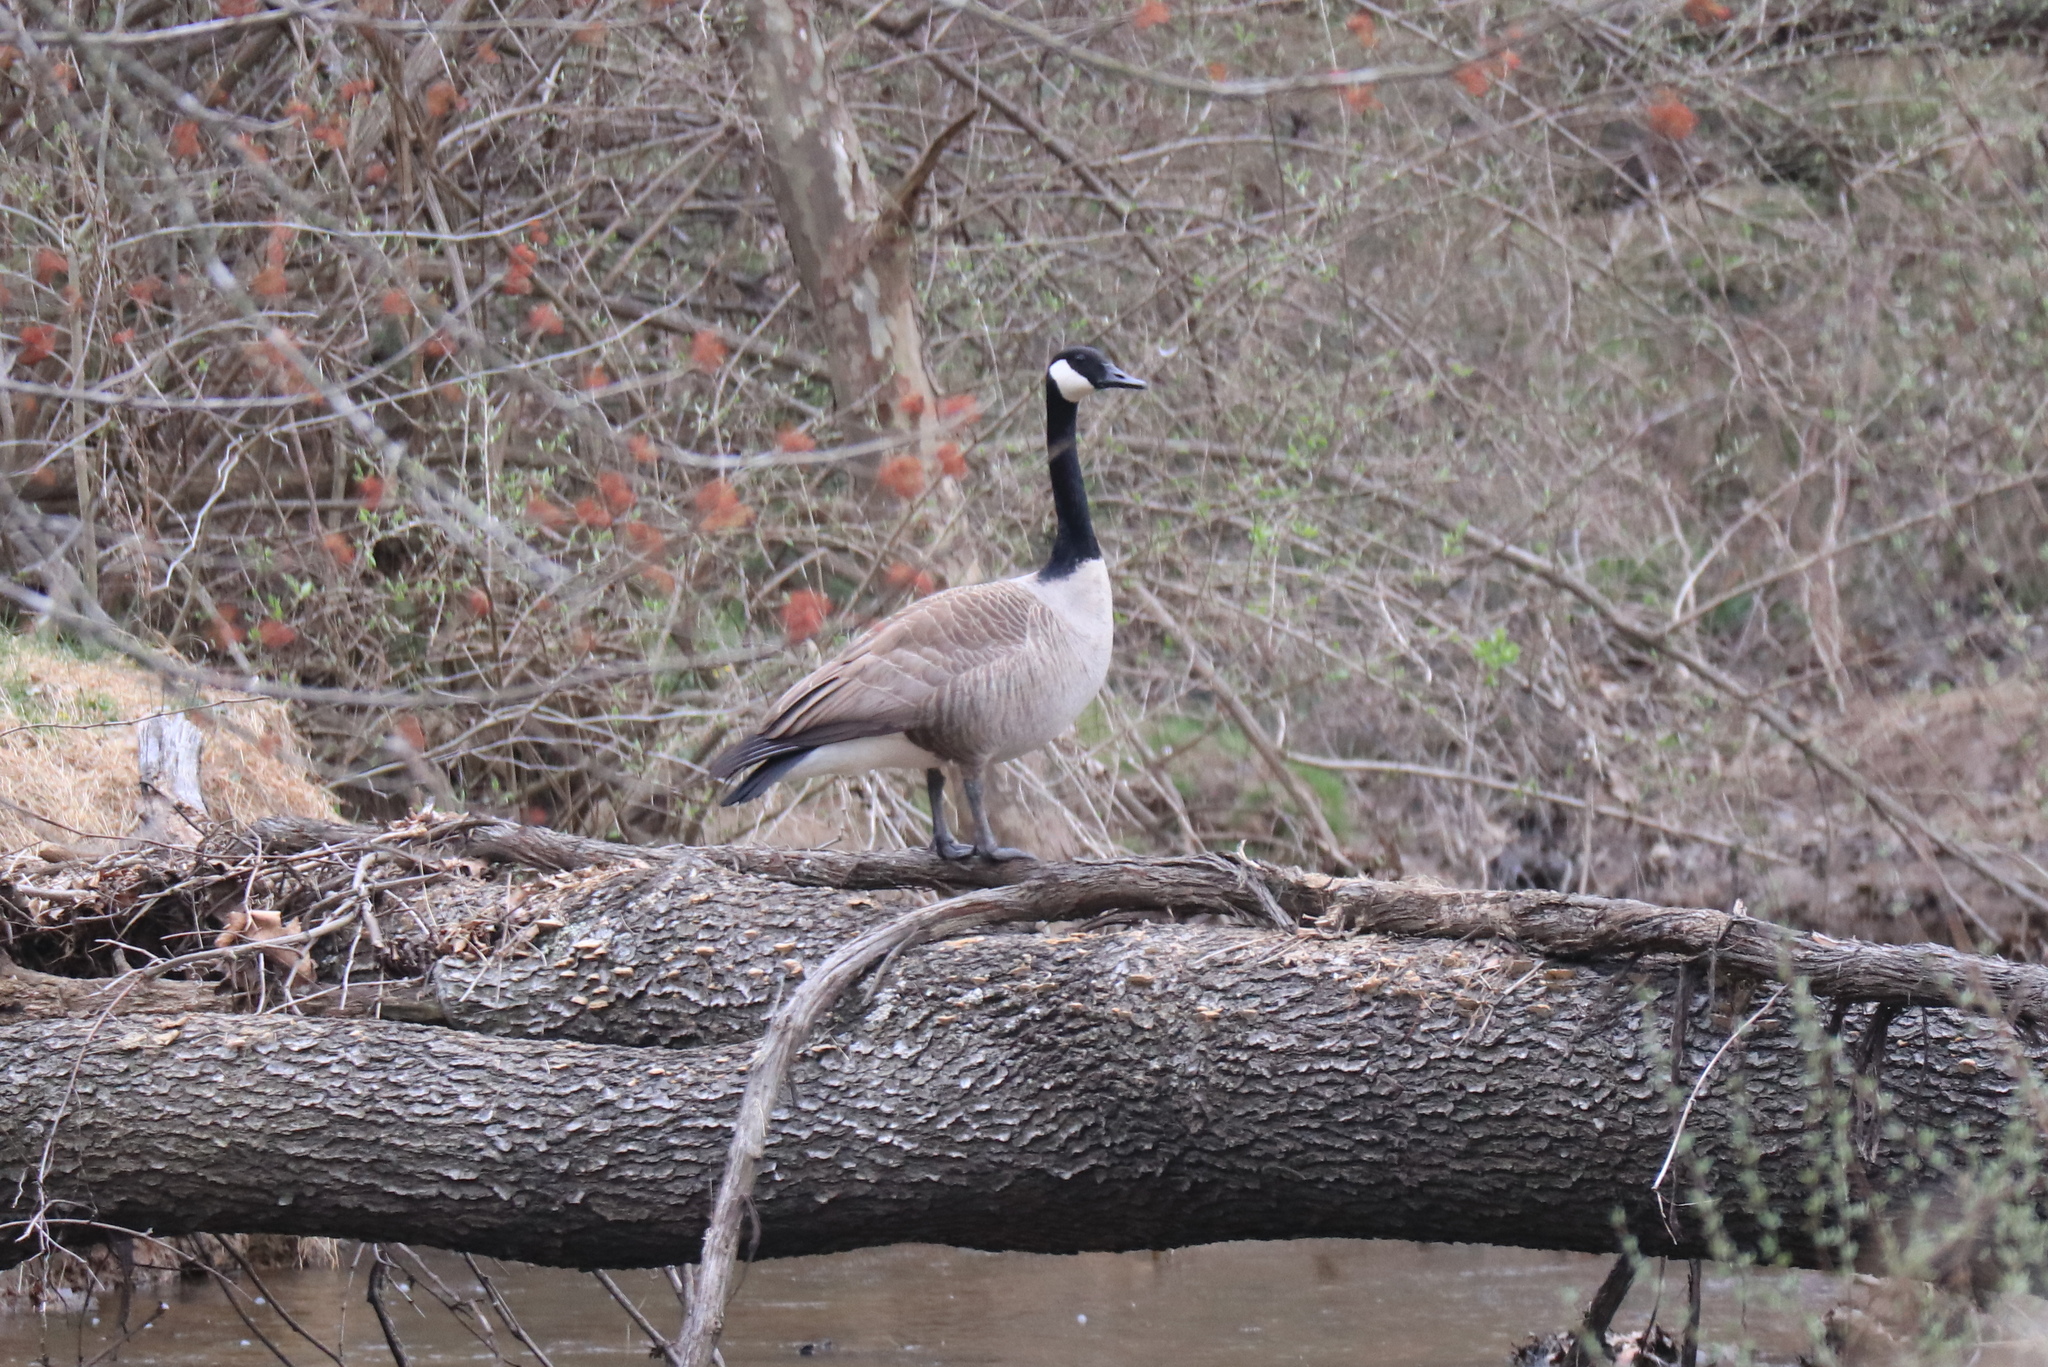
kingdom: Animalia
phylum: Chordata
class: Aves
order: Anseriformes
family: Anatidae
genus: Branta
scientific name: Branta canadensis
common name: Canada goose
